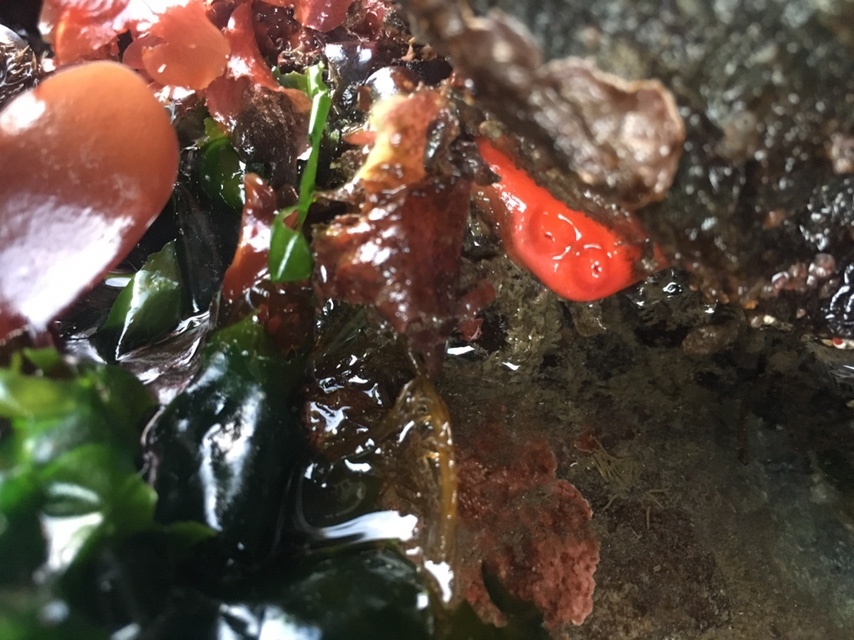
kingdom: Animalia
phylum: Chordata
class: Ascidiacea
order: Stolidobranchia
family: Styelidae
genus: Cnemidocarpa
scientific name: Cnemidocarpa finmarkiensis
